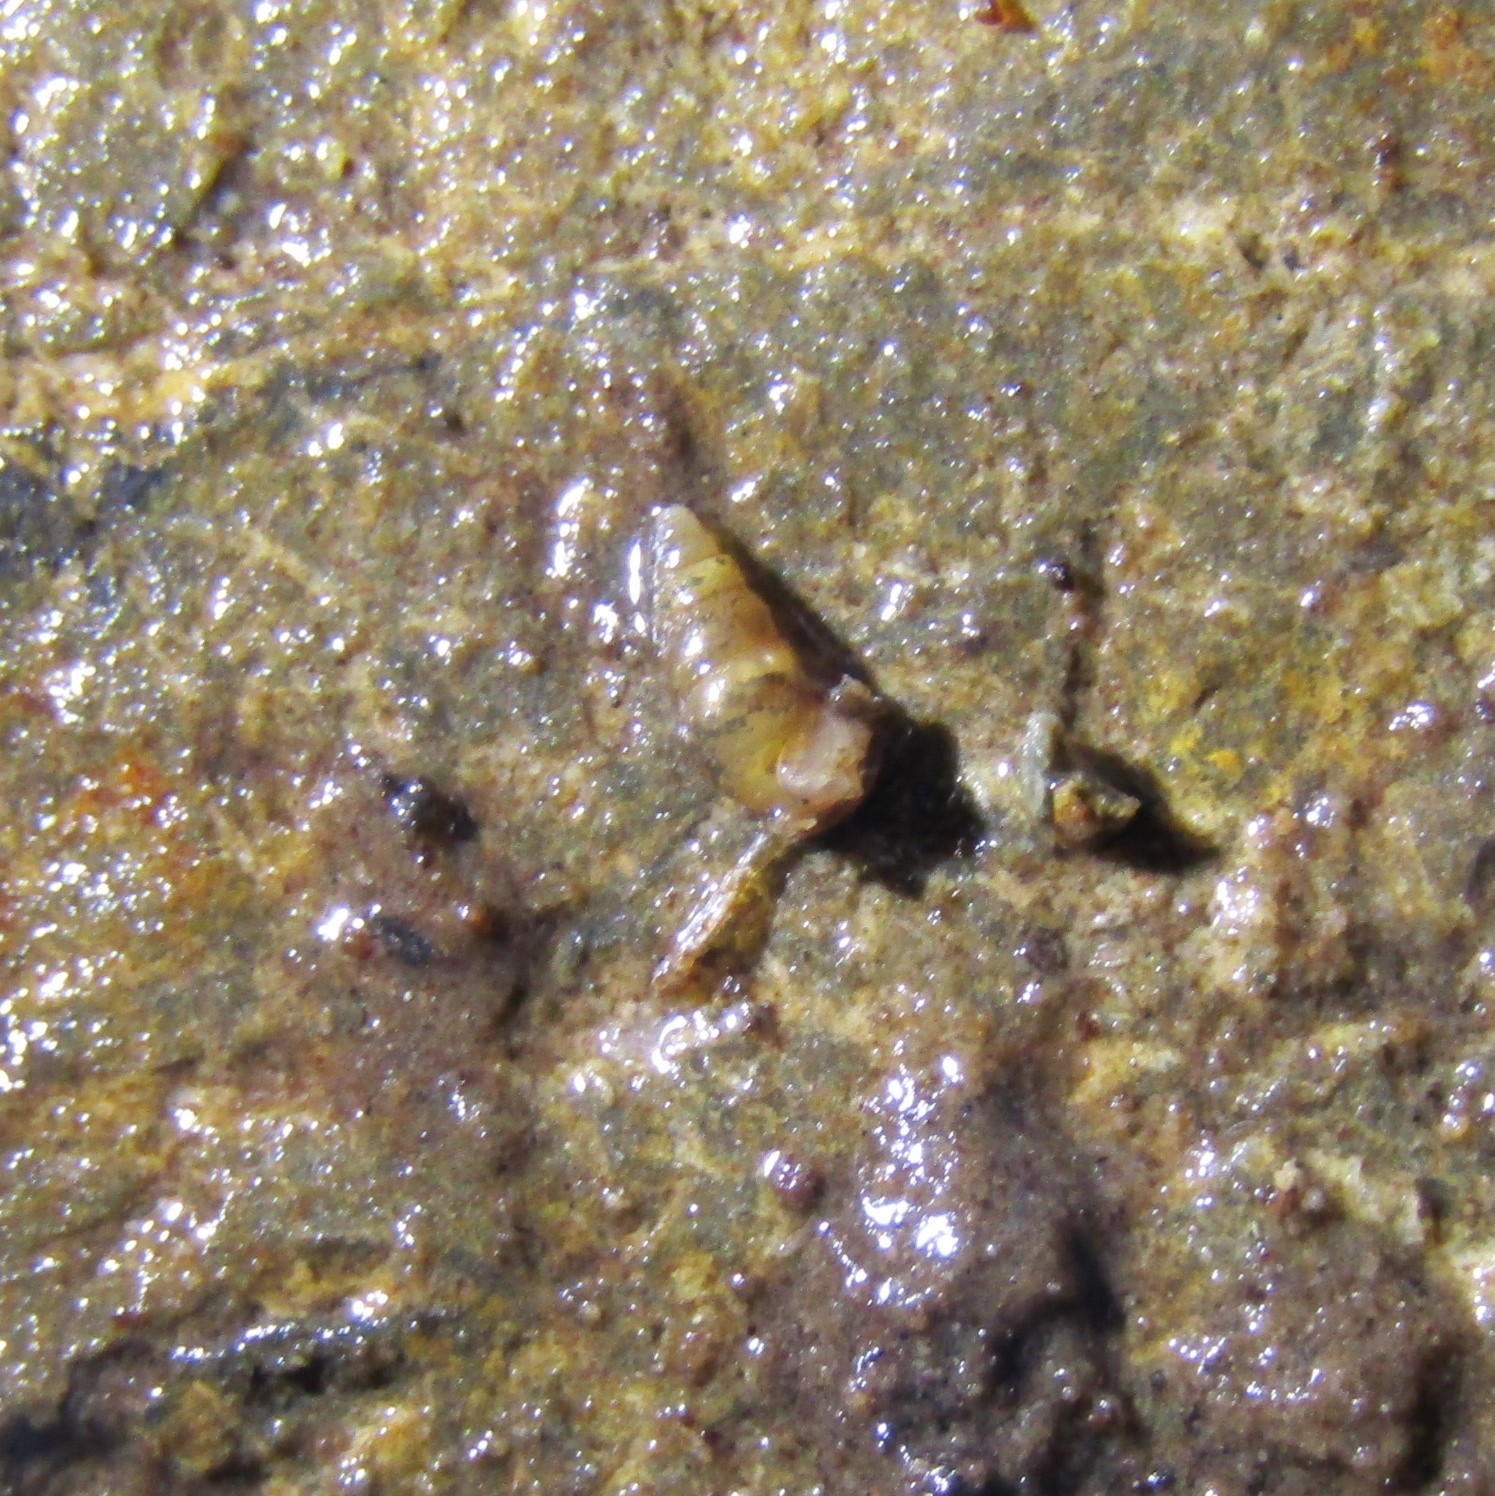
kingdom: Animalia
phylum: Mollusca
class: Gastropoda
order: Littorinimorpha
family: Tateidae
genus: Potamopyrgus
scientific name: Potamopyrgus oppidanus
